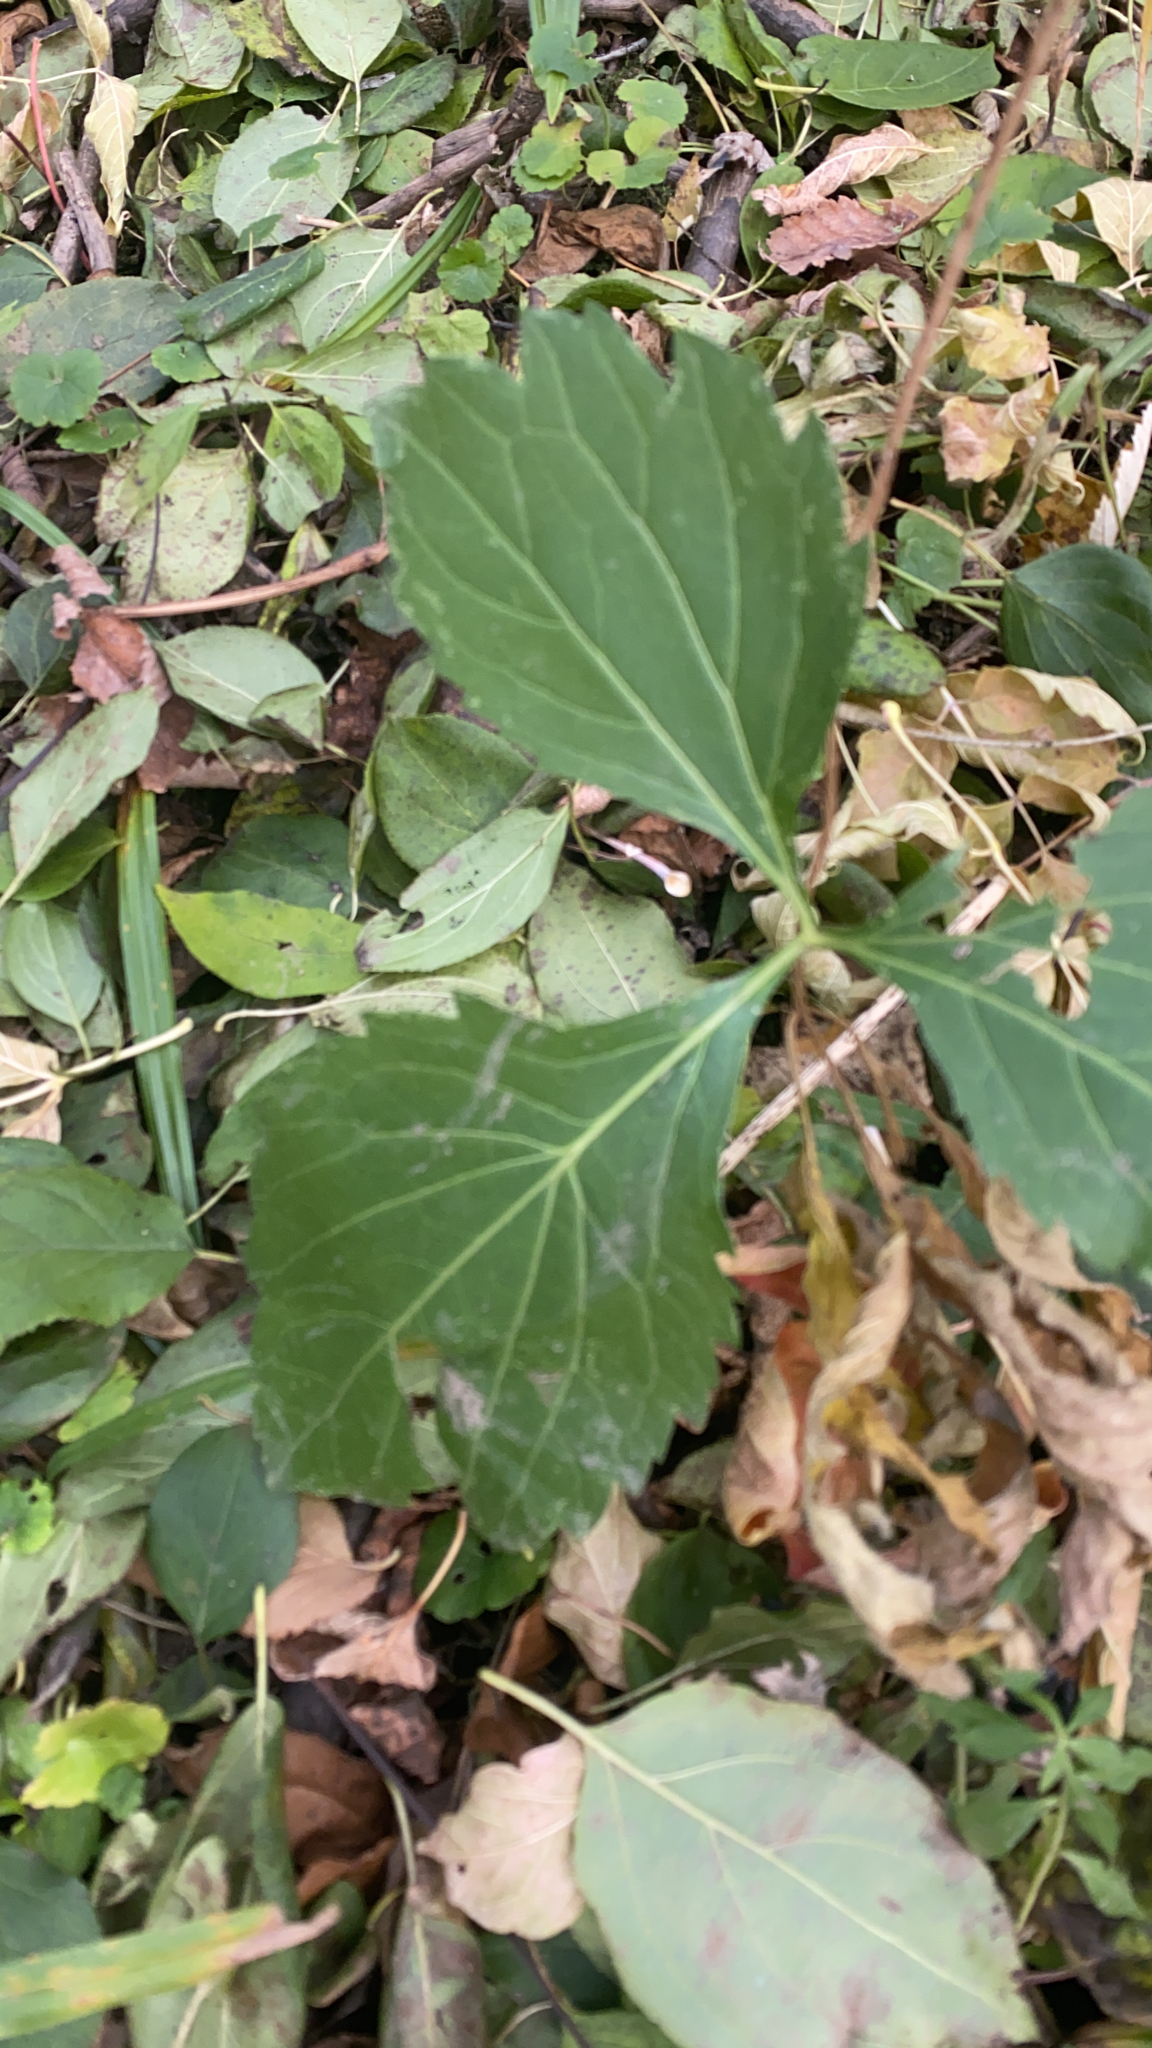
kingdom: Plantae
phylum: Tracheophyta
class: Magnoliopsida
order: Asterales
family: Asteraceae
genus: Rudbeckia
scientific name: Rudbeckia laciniata
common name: Coneflower
